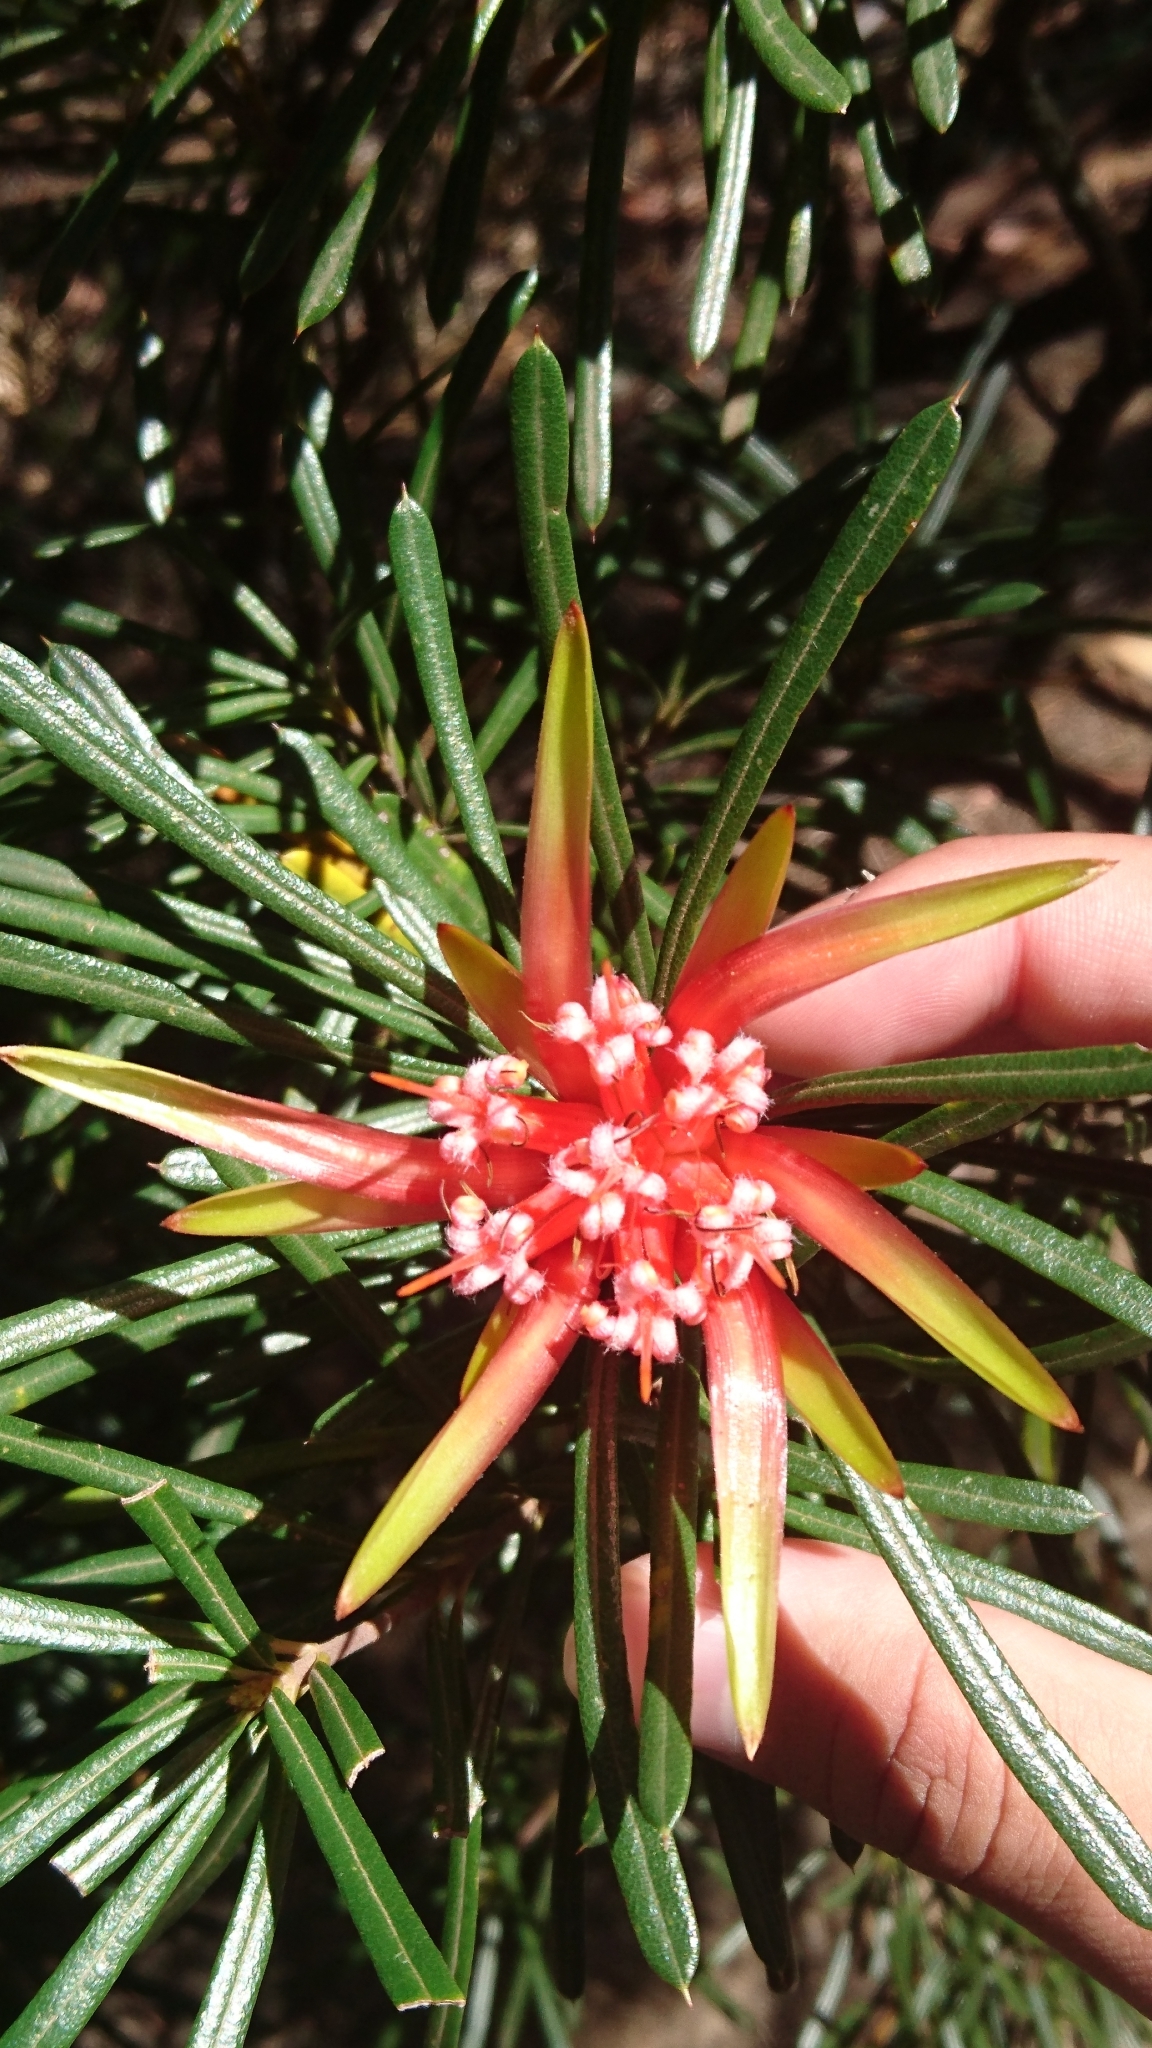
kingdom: Plantae
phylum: Tracheophyta
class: Magnoliopsida
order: Proteales
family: Proteaceae
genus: Lambertia
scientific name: Lambertia formosa
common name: Mountain-devil
